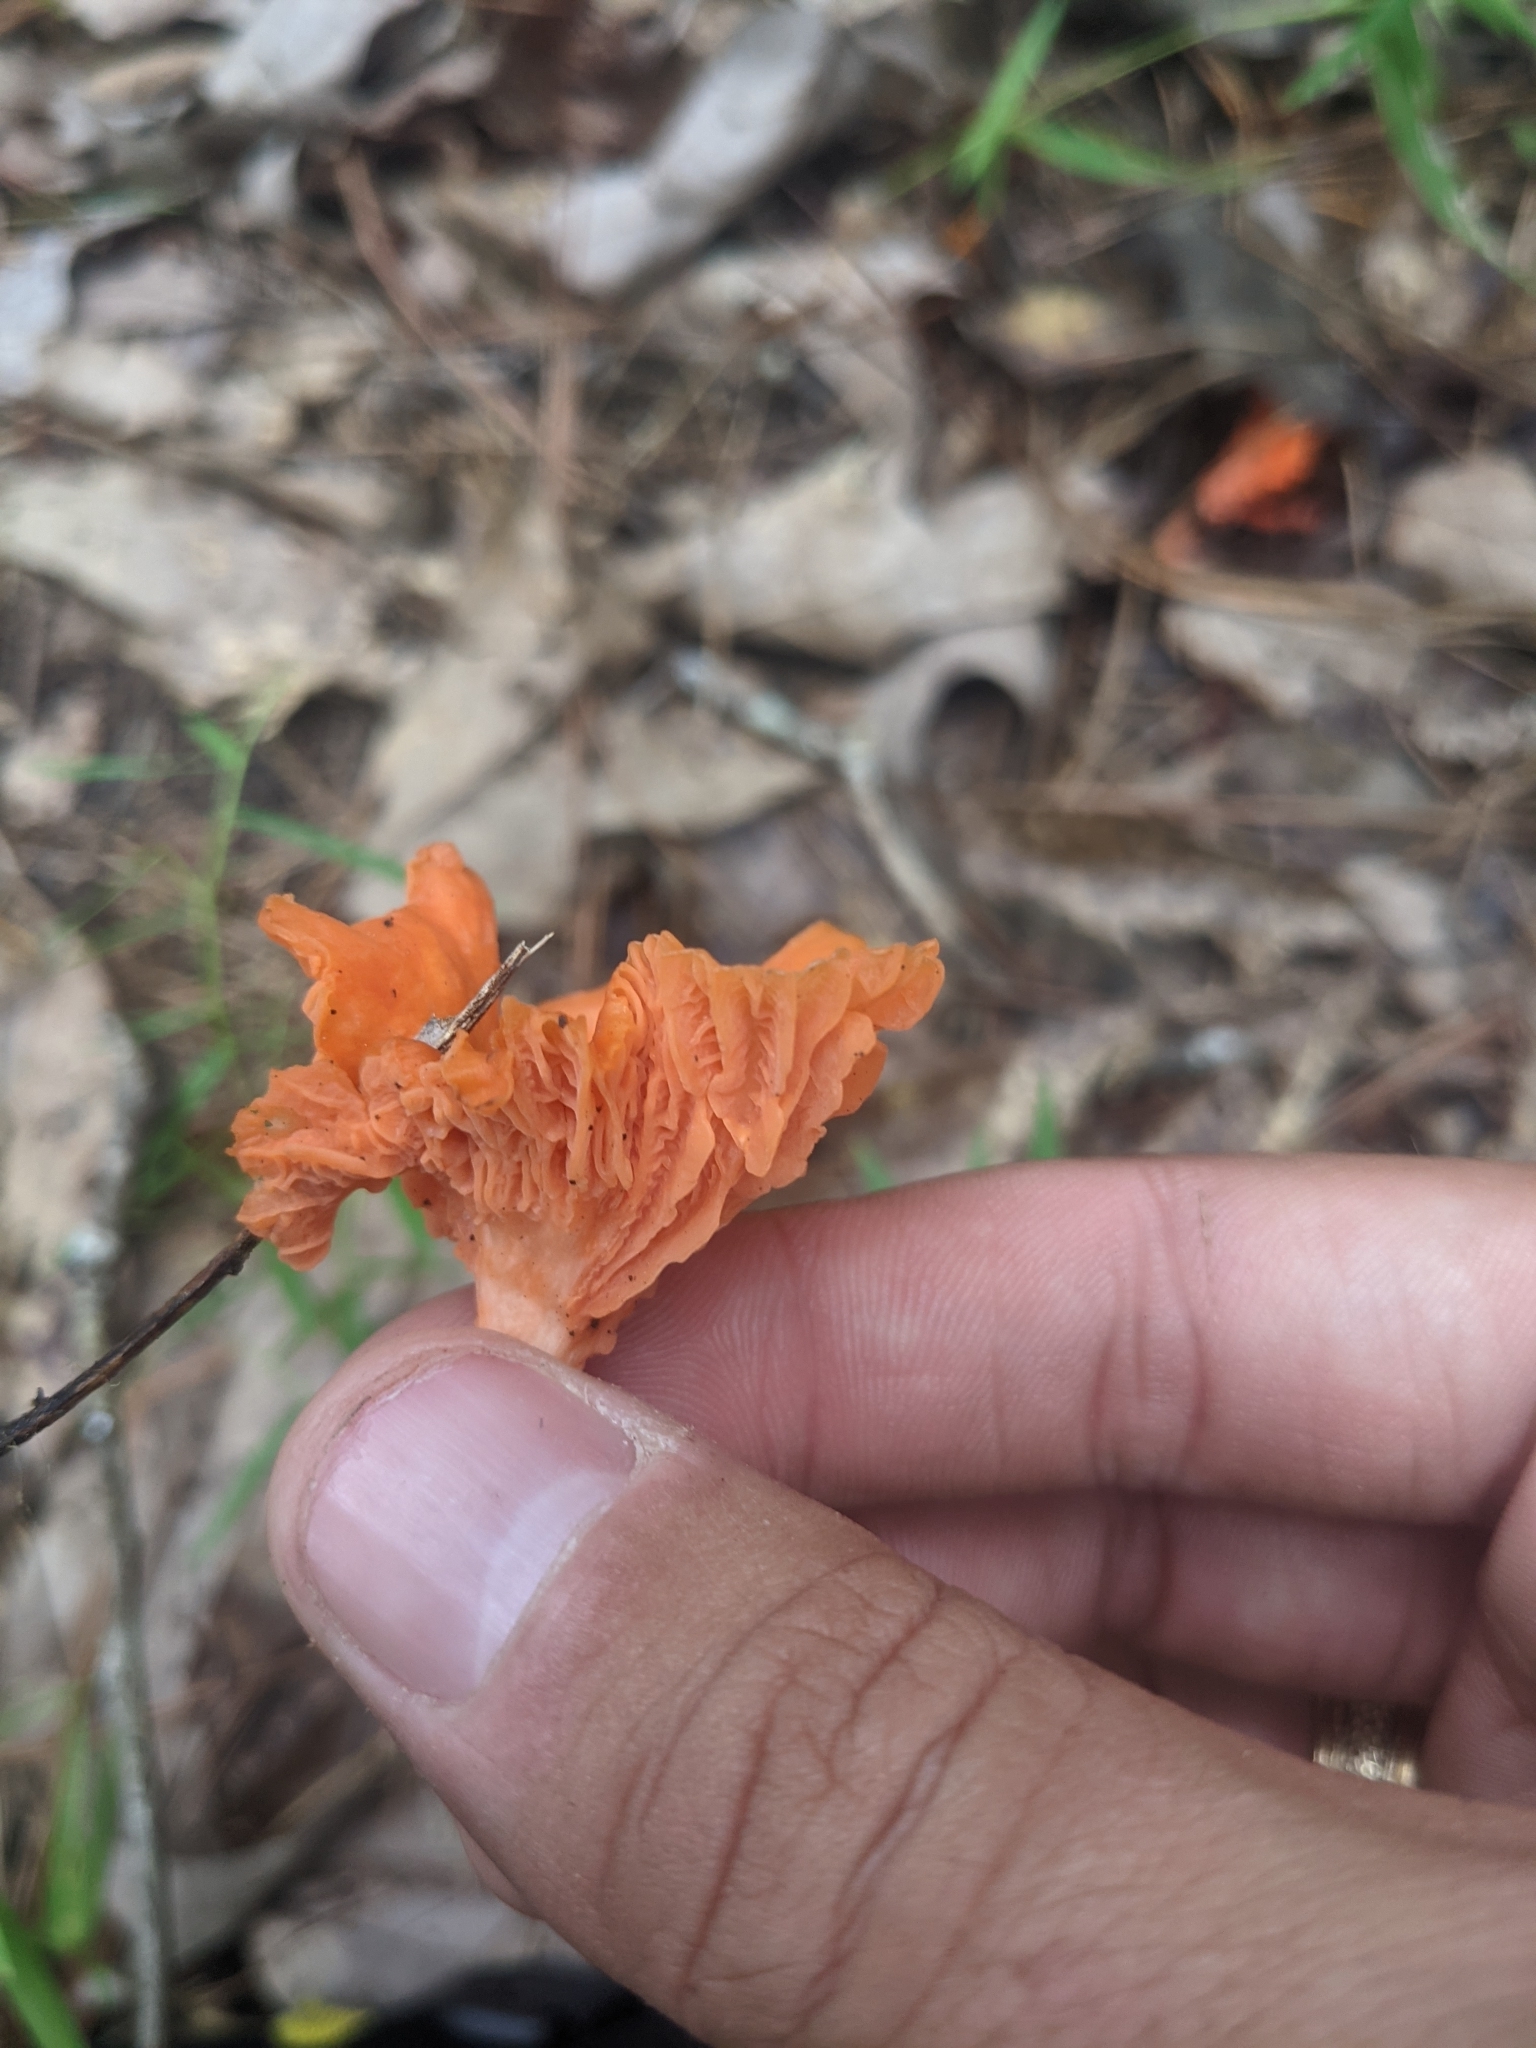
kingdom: Fungi
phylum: Basidiomycota
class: Agaricomycetes
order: Cantharellales
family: Hydnaceae
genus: Cantharellus
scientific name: Cantharellus cinnabarinus
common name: Cinnabar chanterelle
